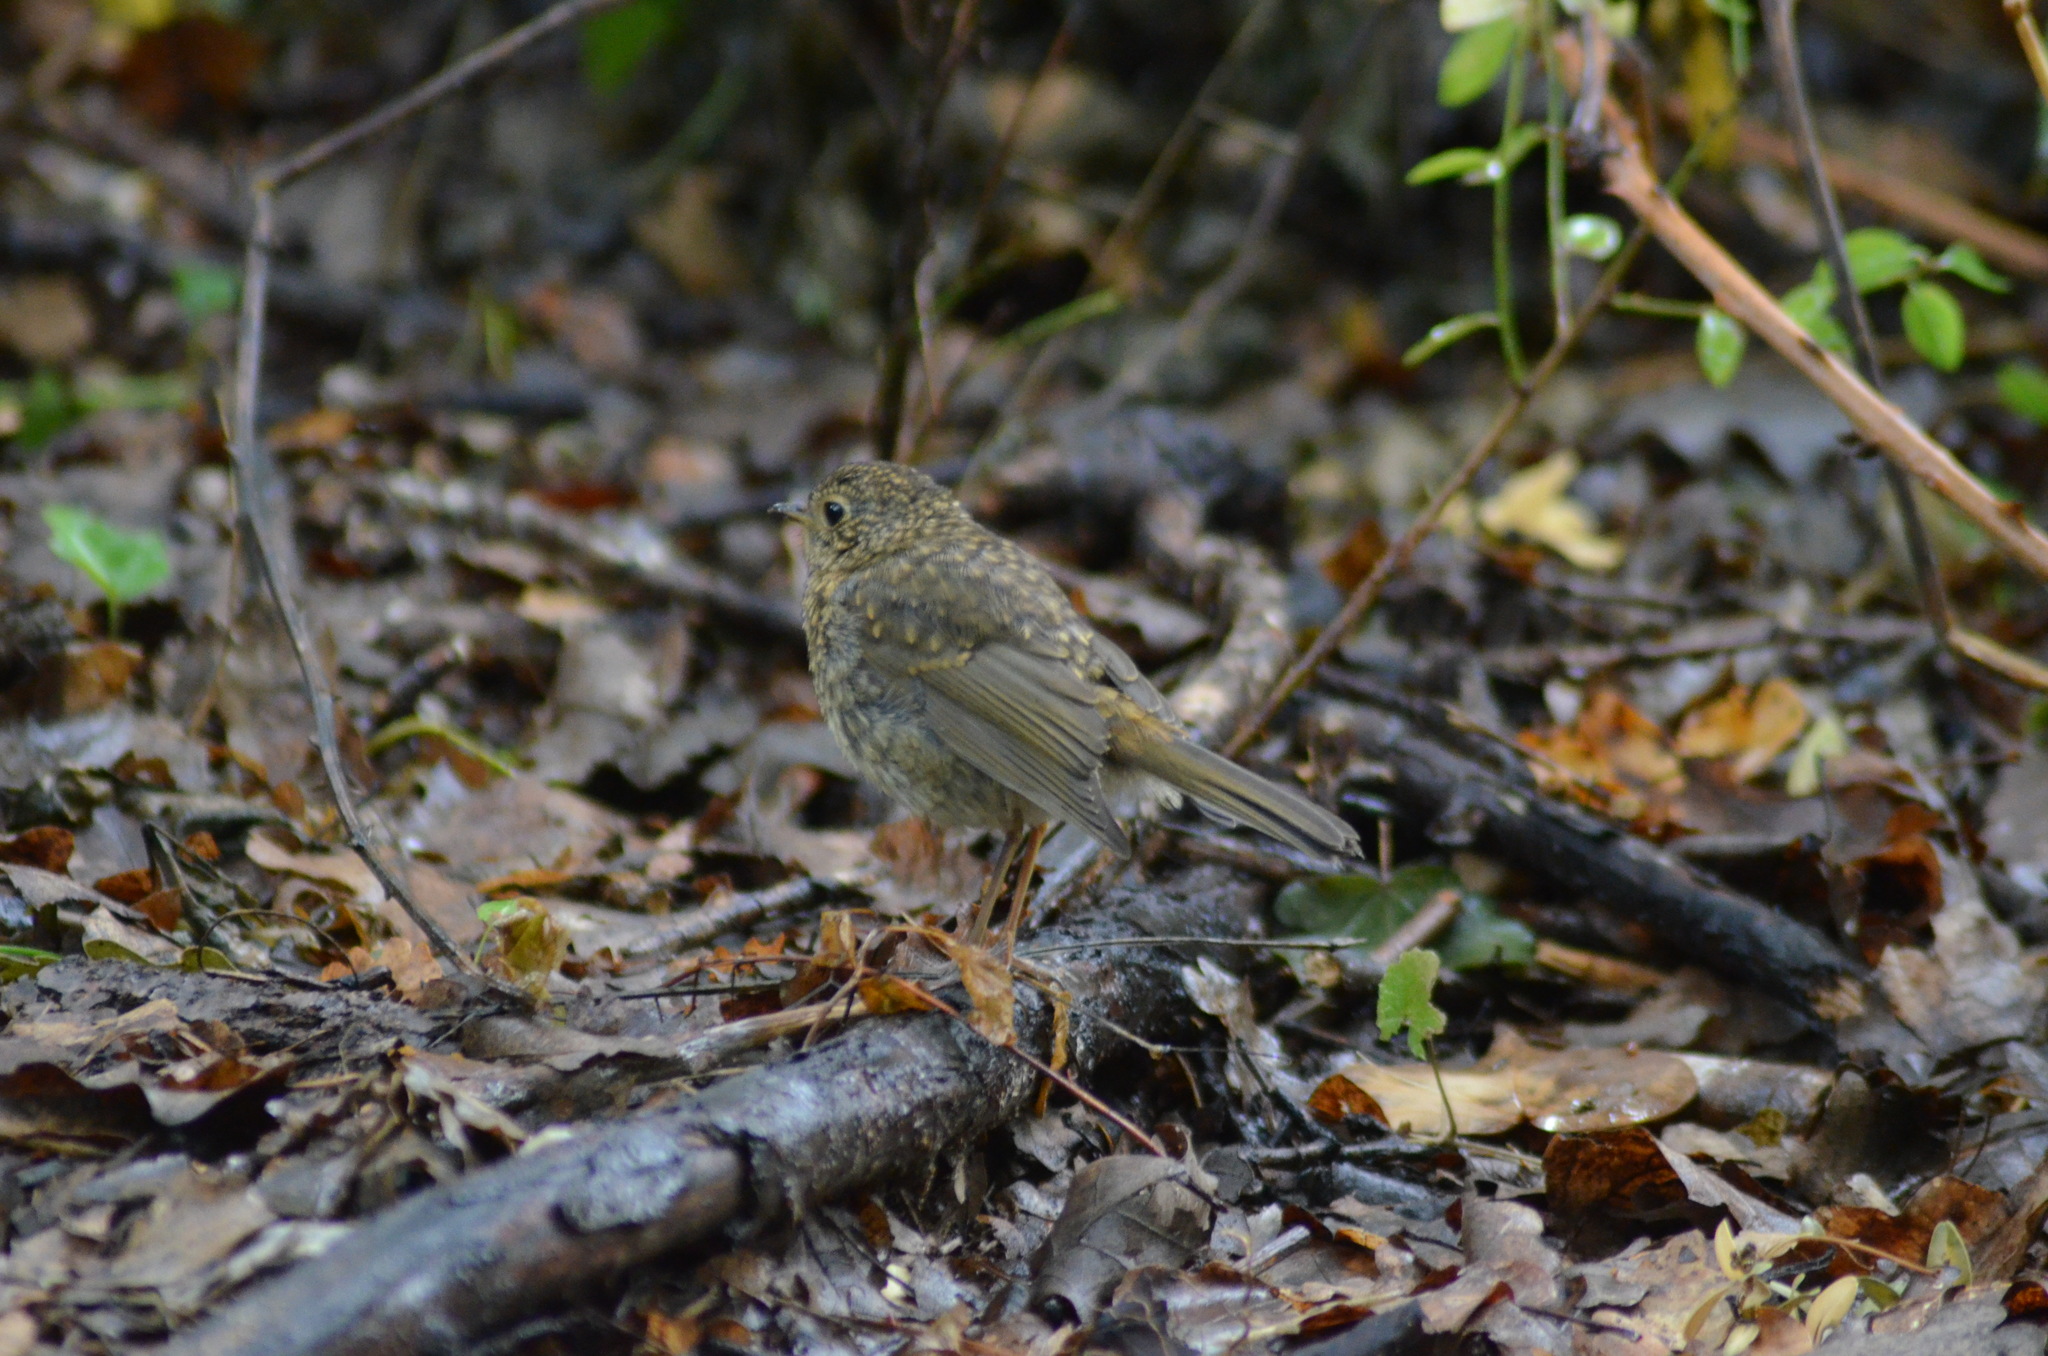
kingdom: Animalia
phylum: Chordata
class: Aves
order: Passeriformes
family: Muscicapidae
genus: Erithacus
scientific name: Erithacus rubecula
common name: European robin
